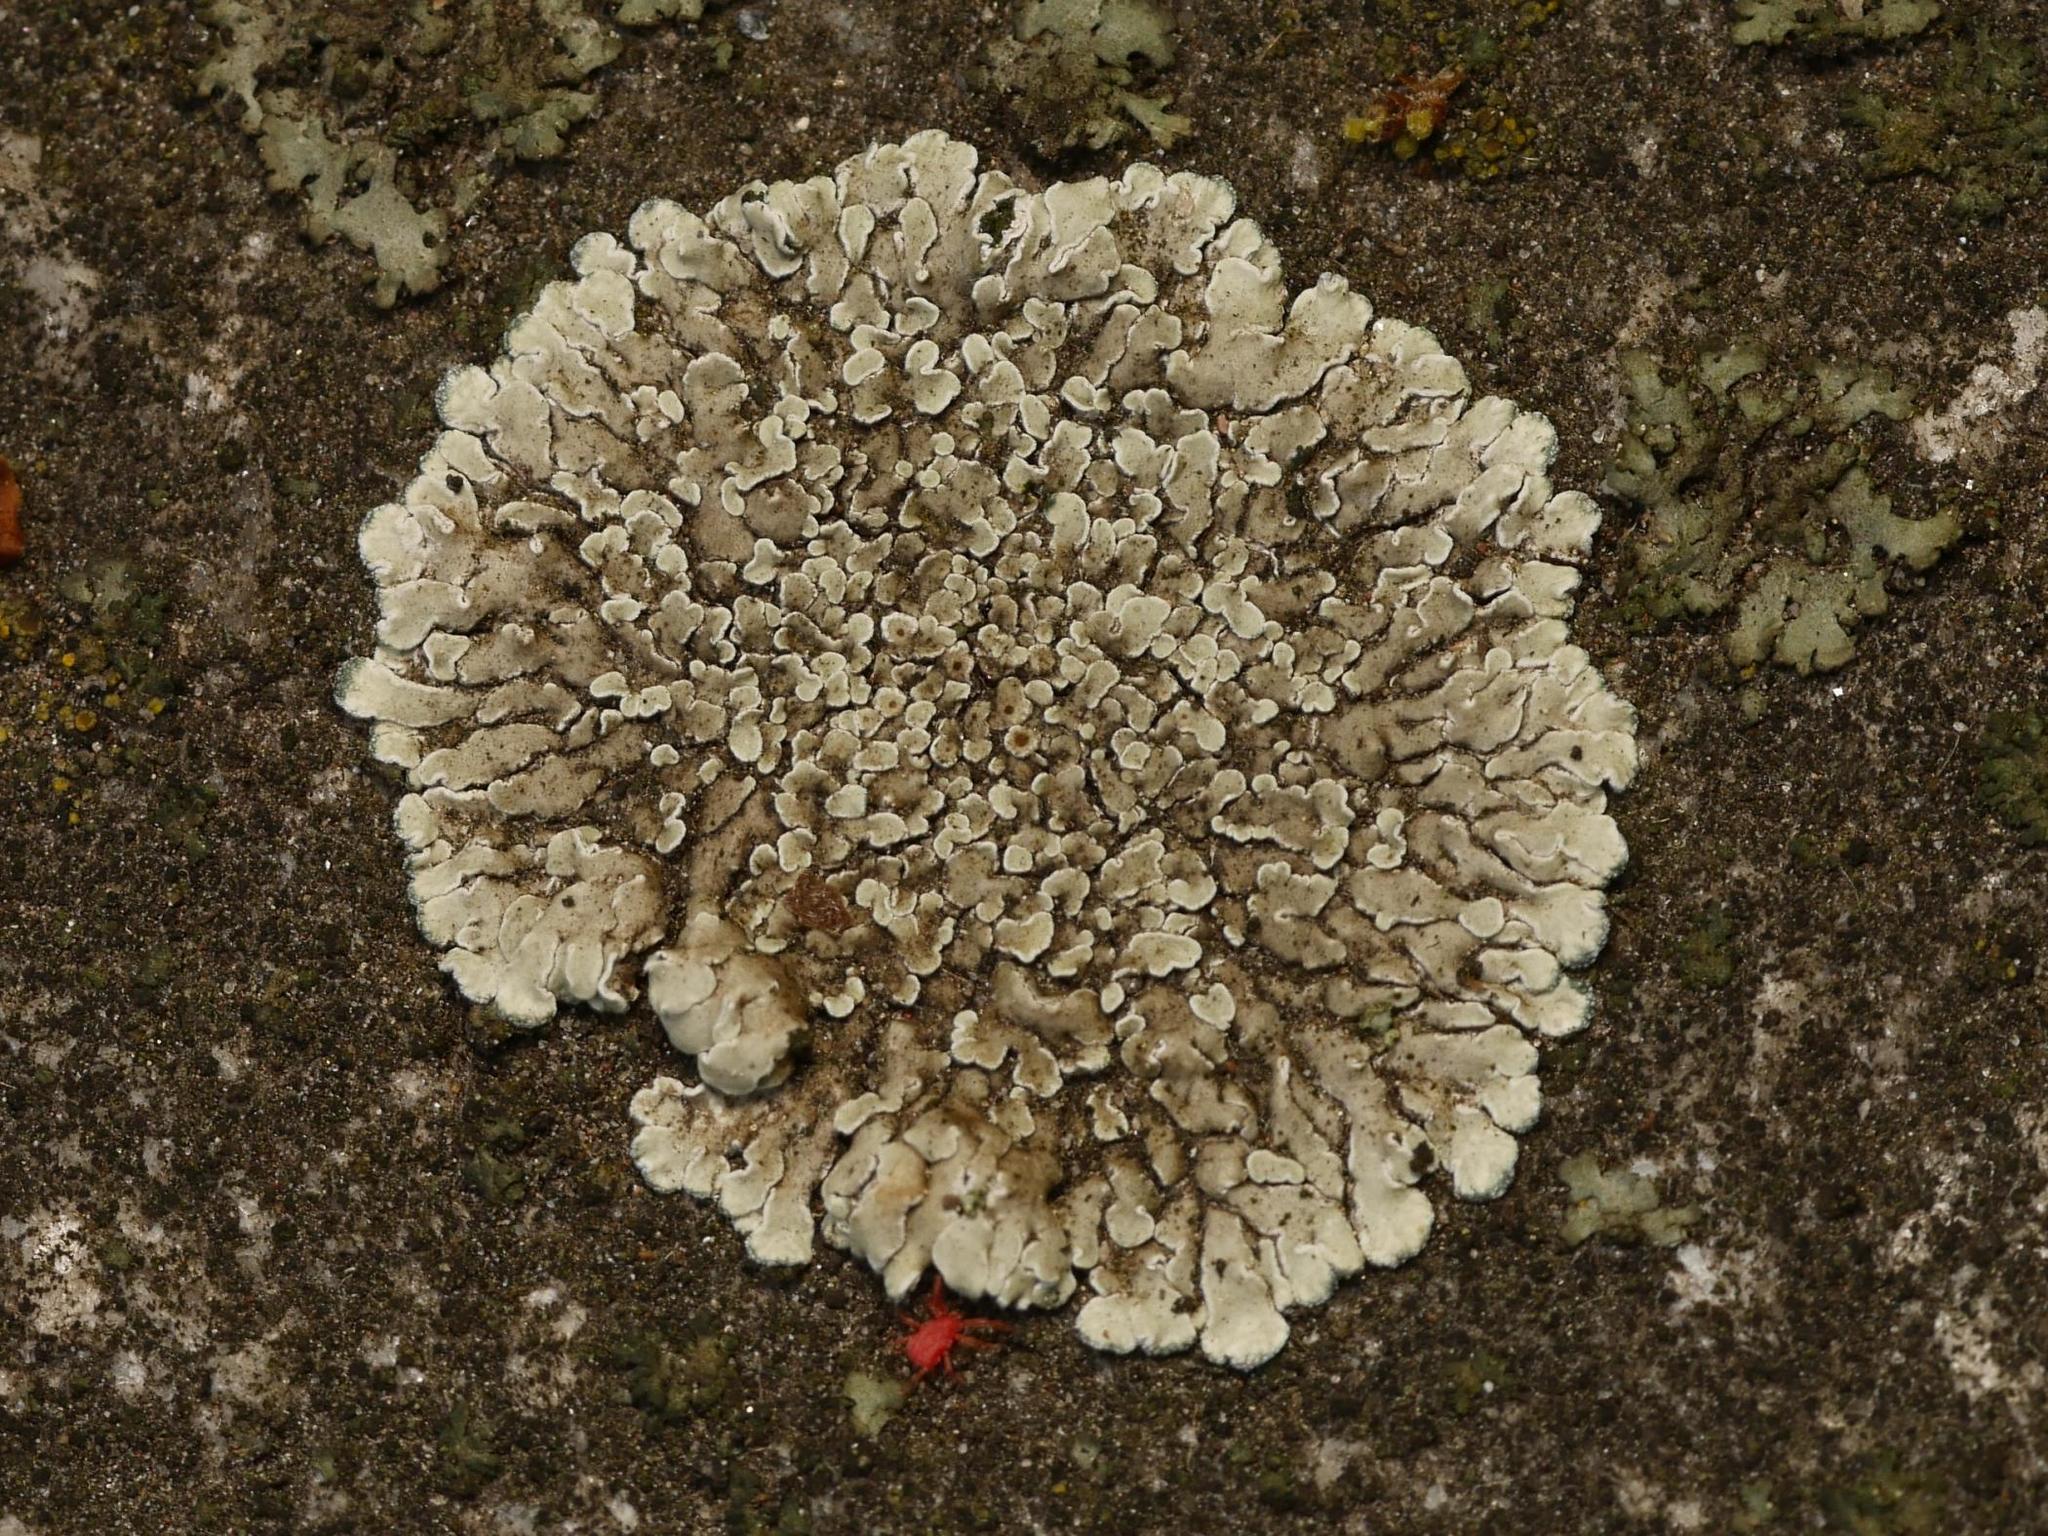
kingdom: Fungi
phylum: Ascomycota
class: Lecanoromycetes
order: Lecanorales
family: Lecanoraceae
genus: Protoparmeliopsis
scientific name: Protoparmeliopsis muralis
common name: Stonewall rim lichen
